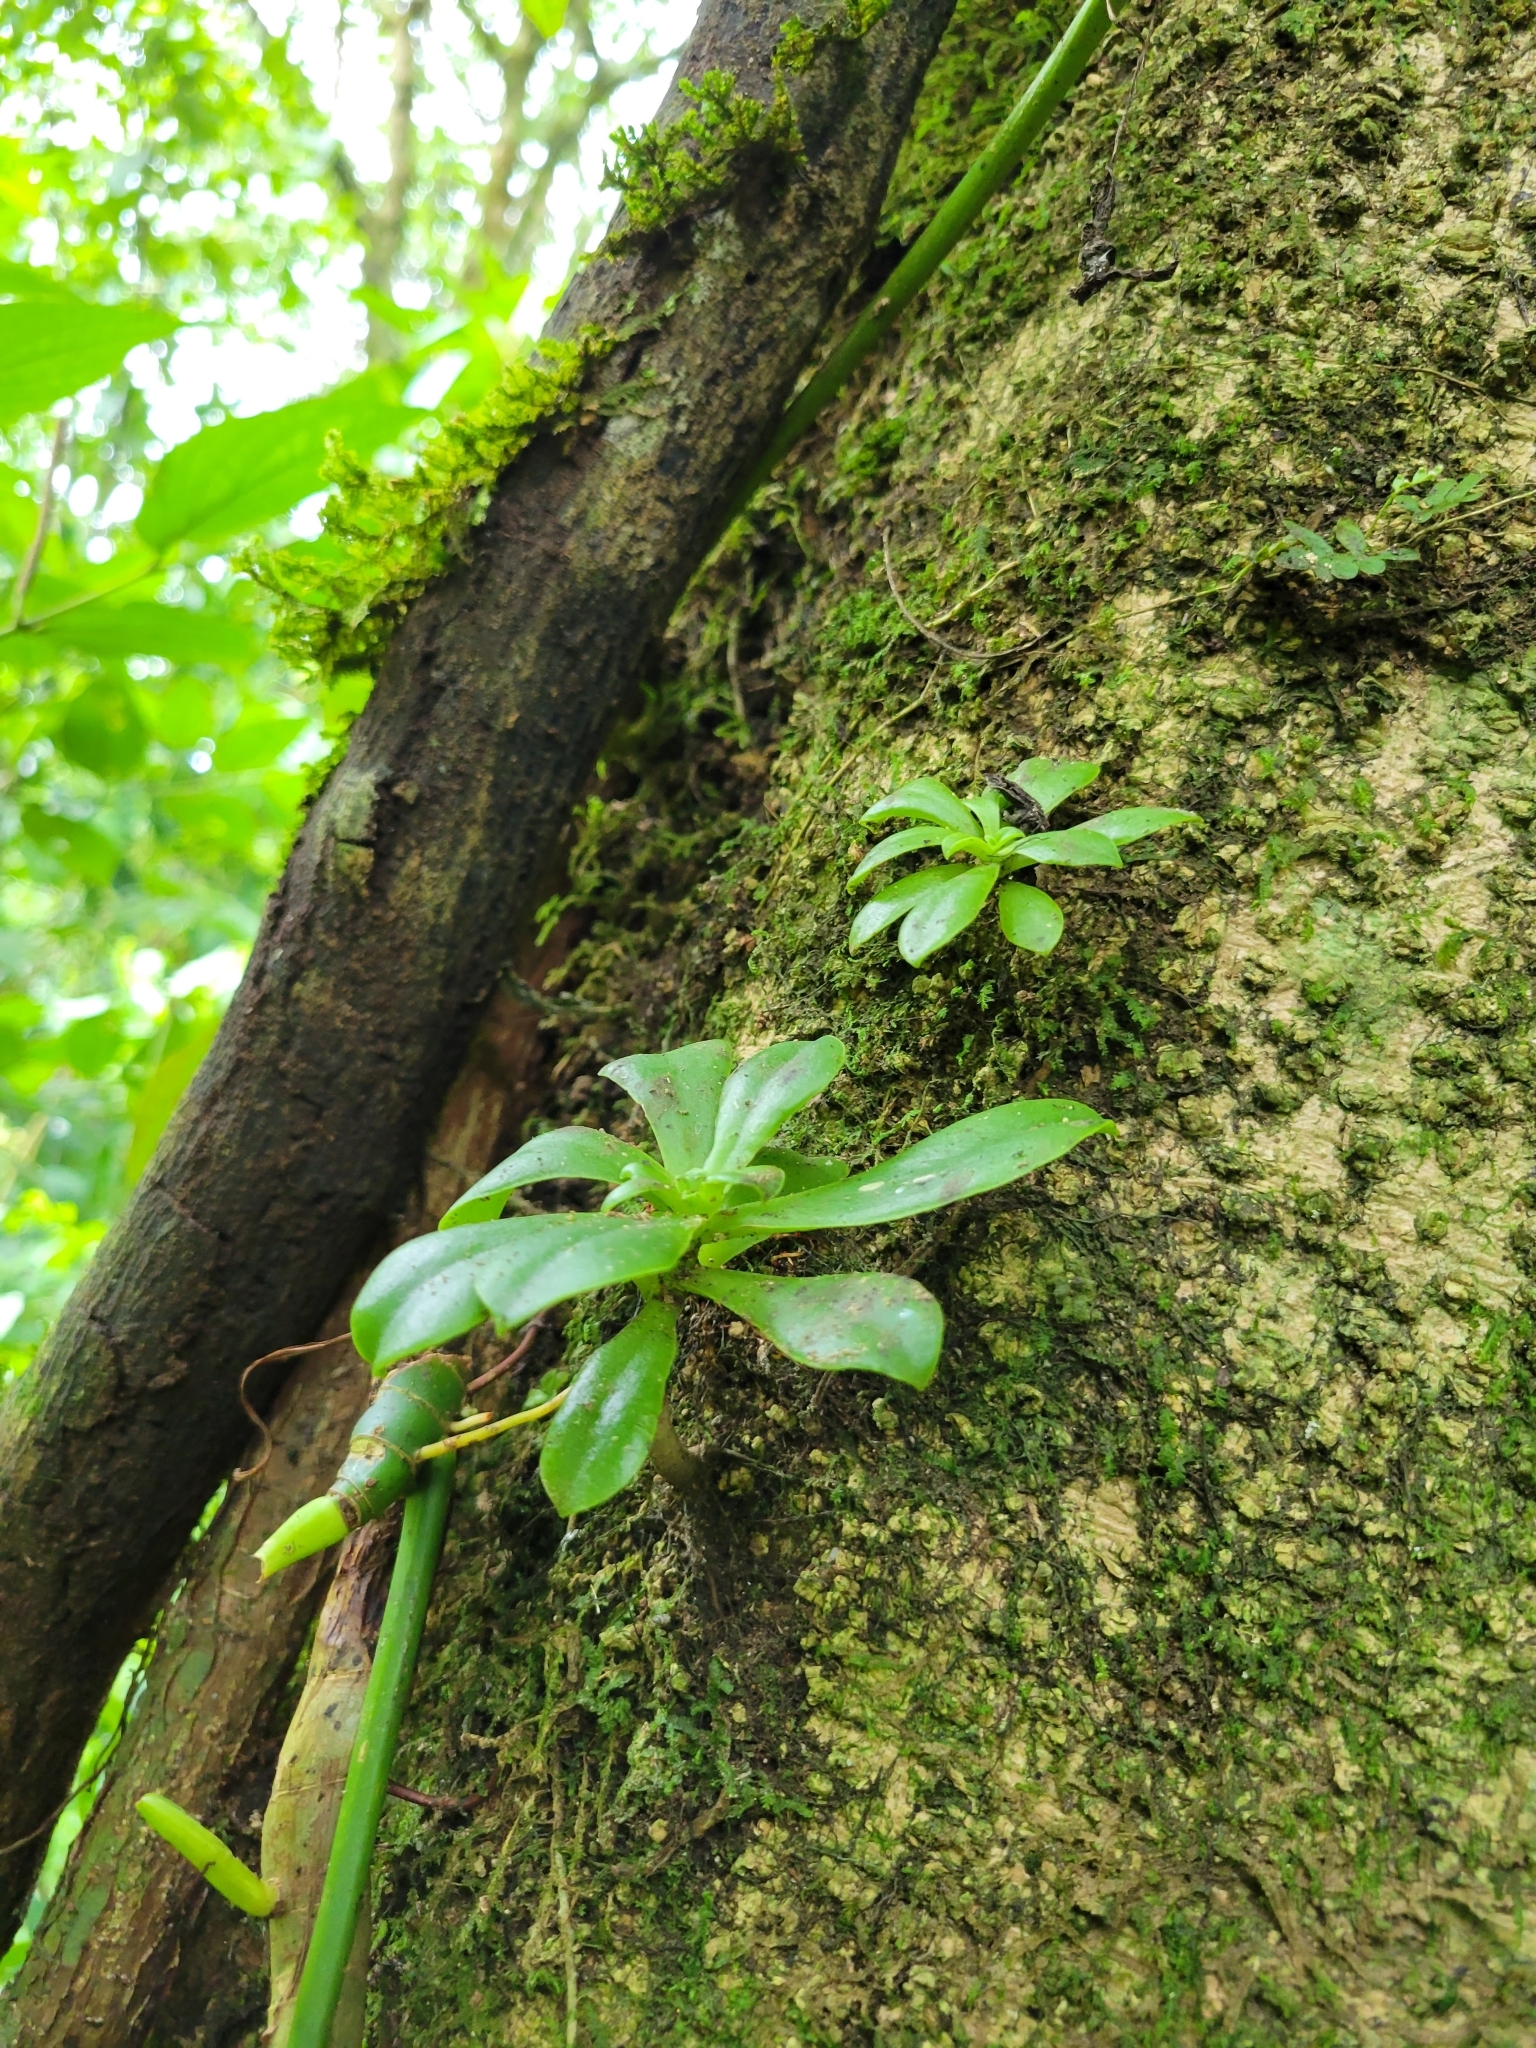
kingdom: Plantae
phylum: Tracheophyta
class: Magnoliopsida
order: Saxifragales
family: Crassulaceae
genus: Echeveria
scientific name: Echeveria australis
